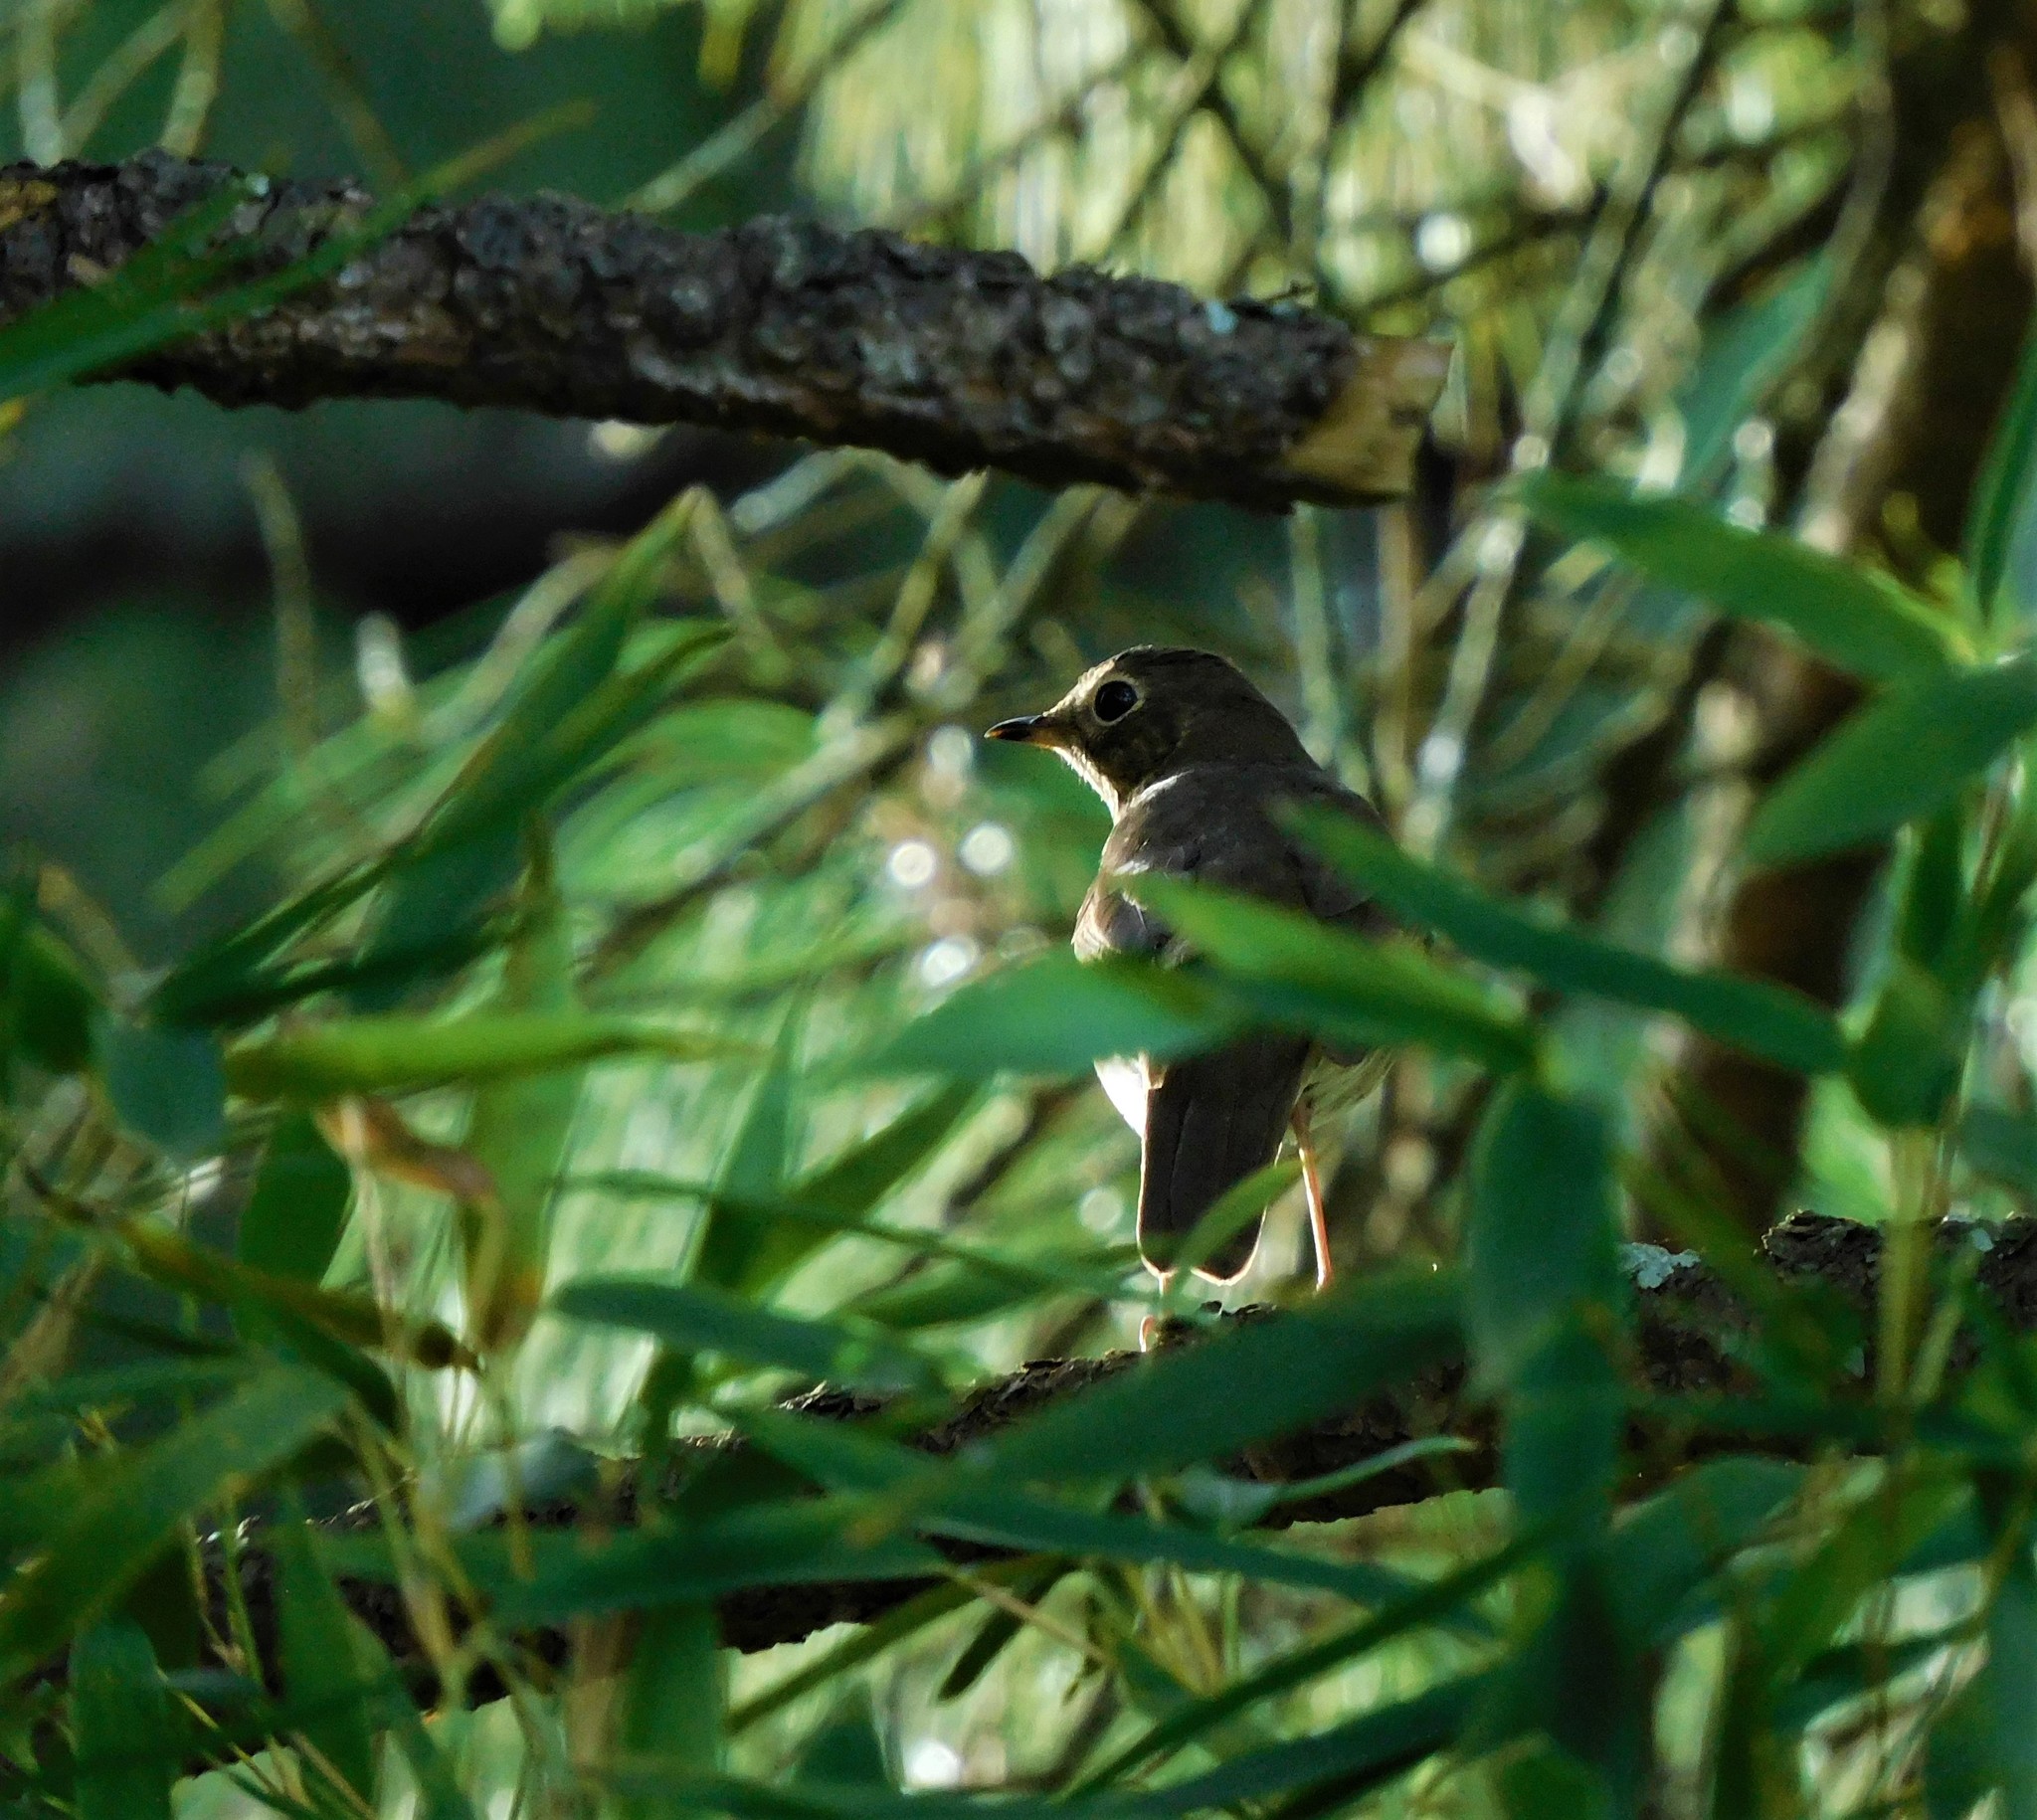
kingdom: Animalia
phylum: Chordata
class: Aves
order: Passeriformes
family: Turdidae
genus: Catharus
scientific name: Catharus ustulatus
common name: Swainson's thrush
